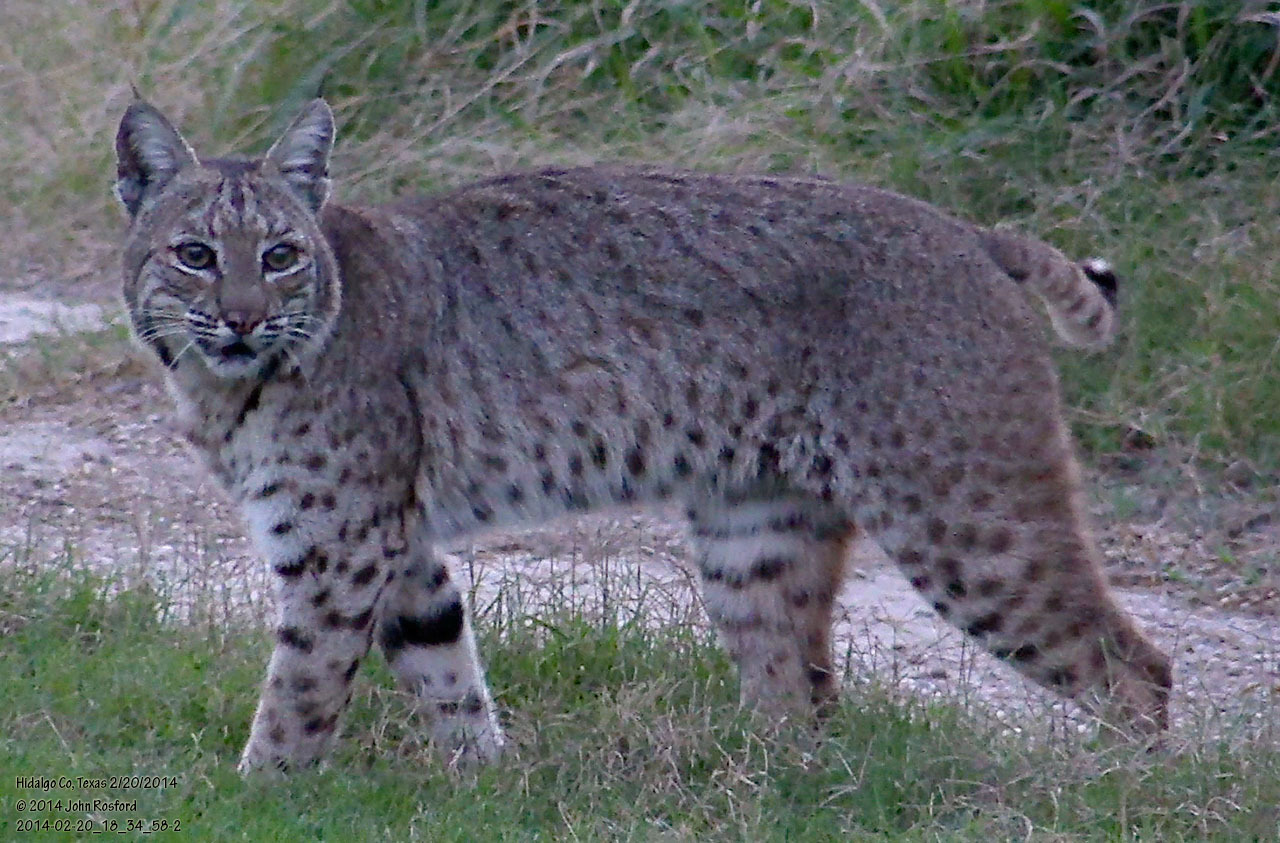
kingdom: Animalia
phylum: Chordata
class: Mammalia
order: Carnivora
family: Felidae
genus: Lynx
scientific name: Lynx rufus
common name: Bobcat
